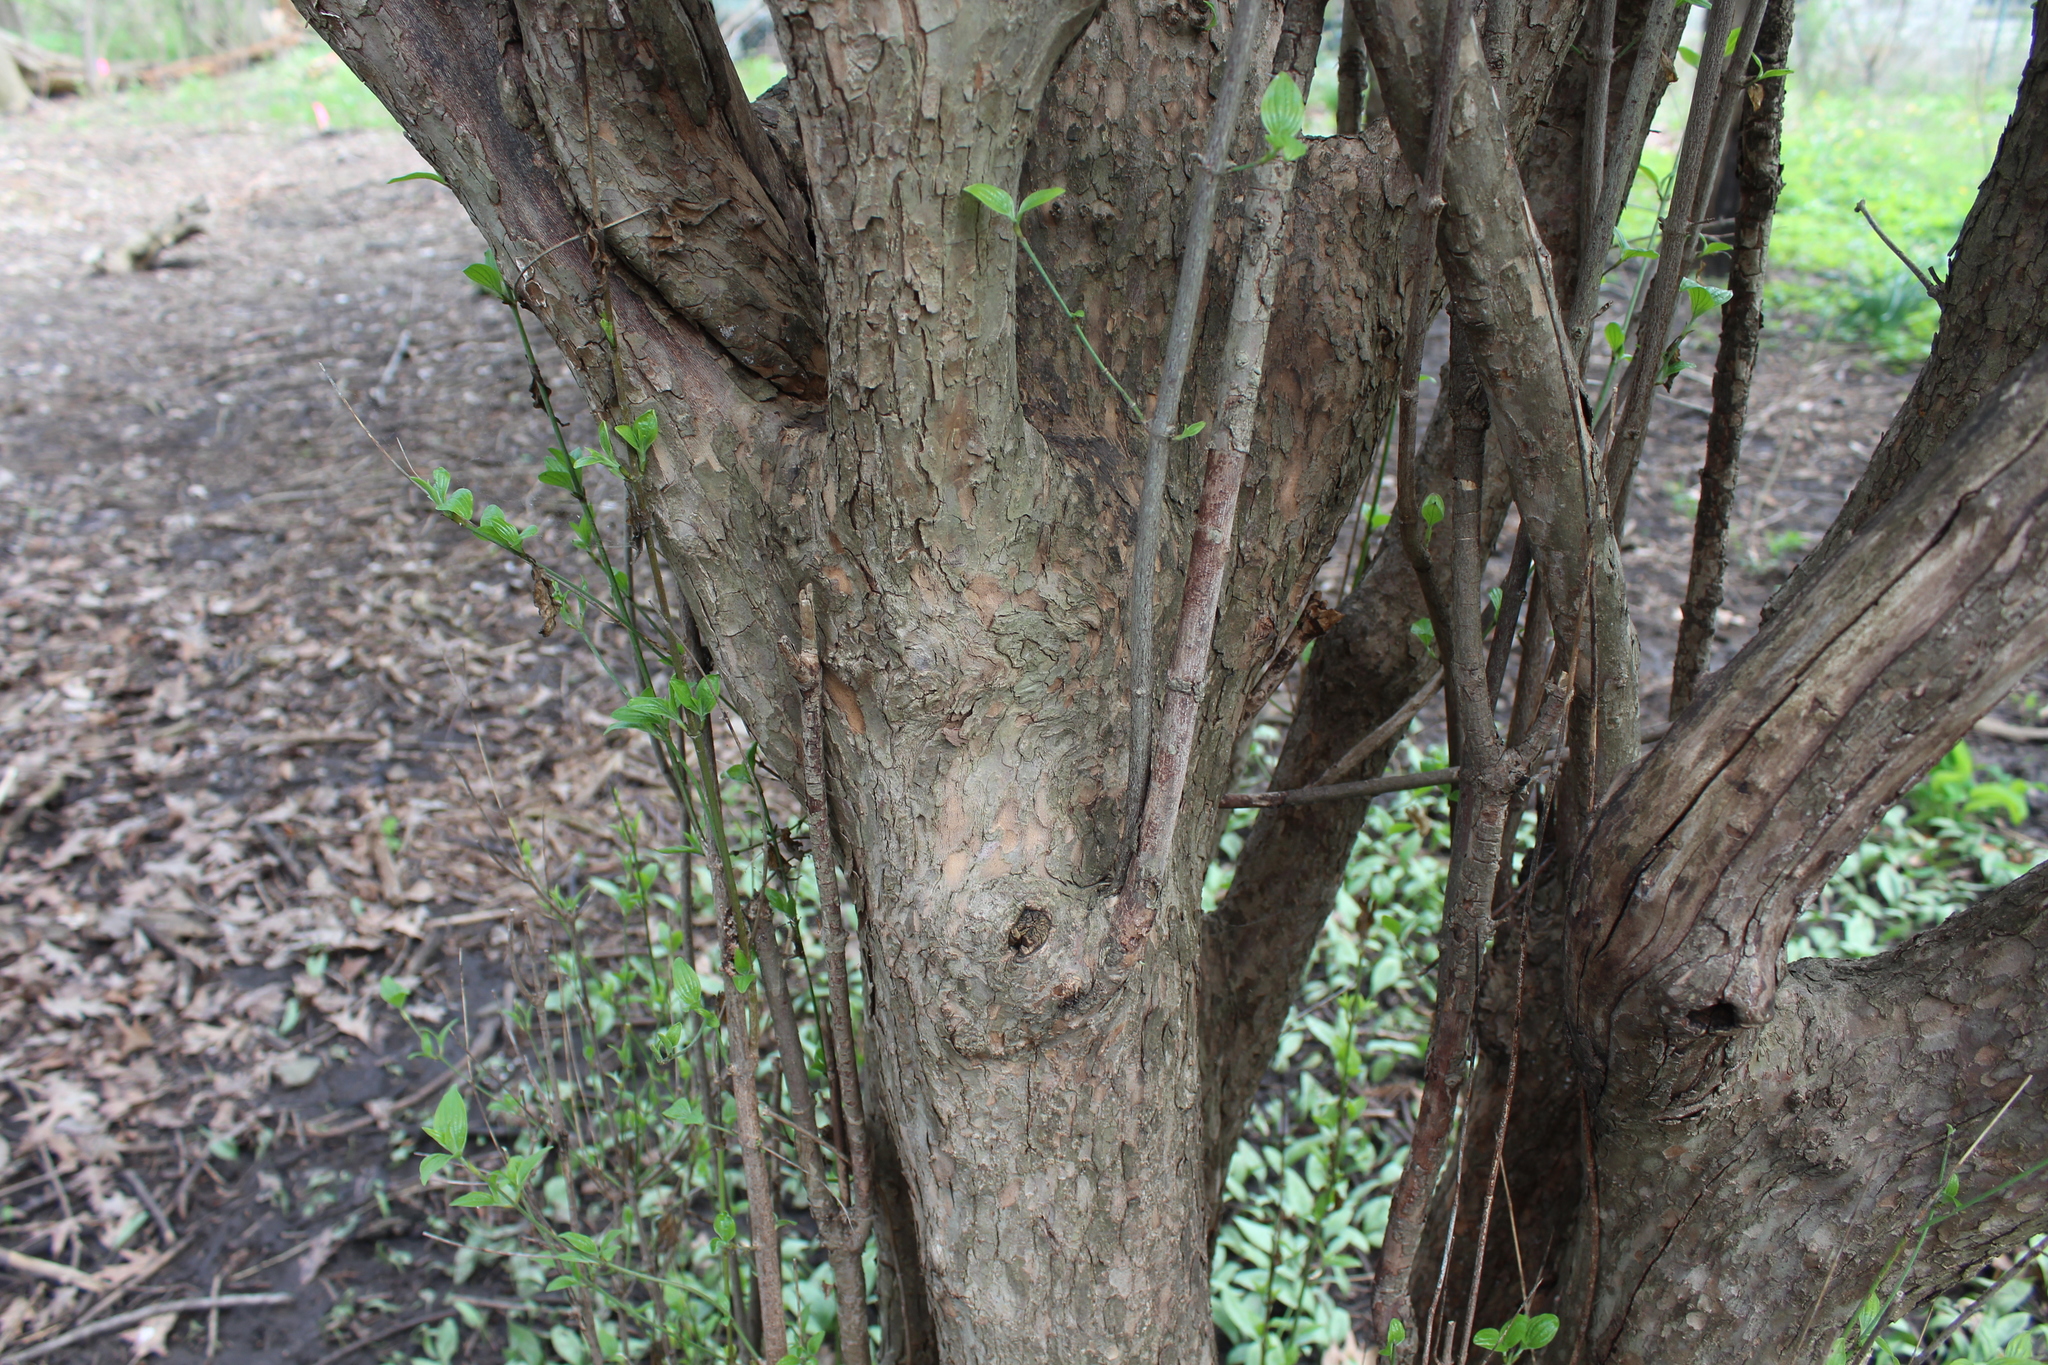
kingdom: Plantae
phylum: Tracheophyta
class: Magnoliopsida
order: Cornales
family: Cornaceae
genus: Cornus
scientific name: Cornus mas
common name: Cornelian-cherry
